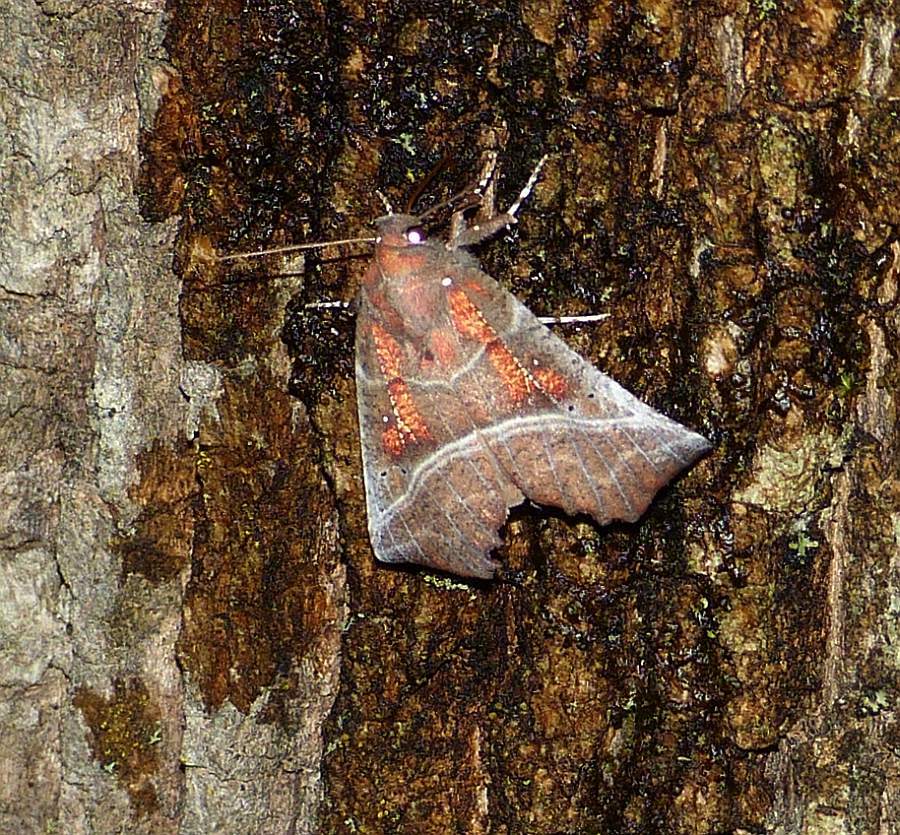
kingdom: Animalia
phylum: Arthropoda
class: Insecta
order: Lepidoptera
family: Erebidae
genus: Scoliopteryx
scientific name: Scoliopteryx libatrix
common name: Herald
